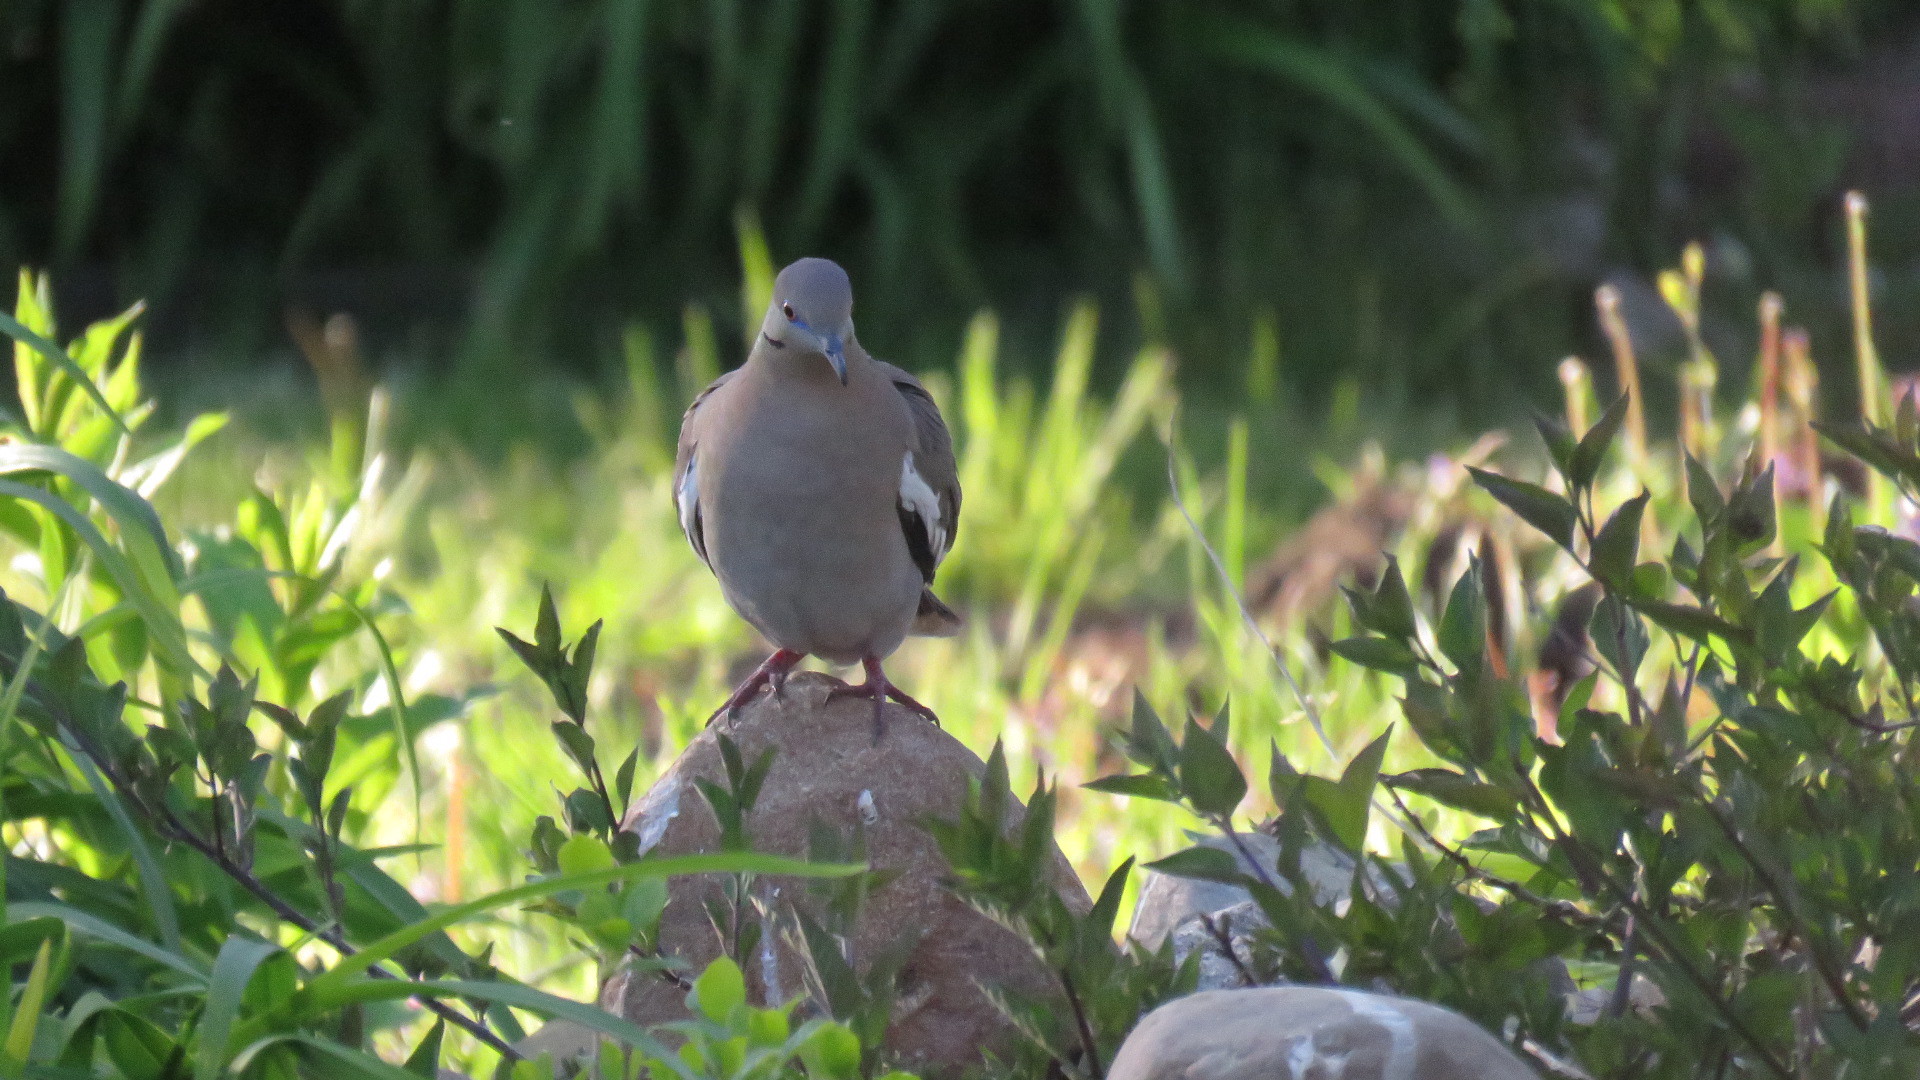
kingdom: Animalia
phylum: Chordata
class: Aves
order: Columbiformes
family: Columbidae
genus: Zenaida
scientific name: Zenaida asiatica
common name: White-winged dove
